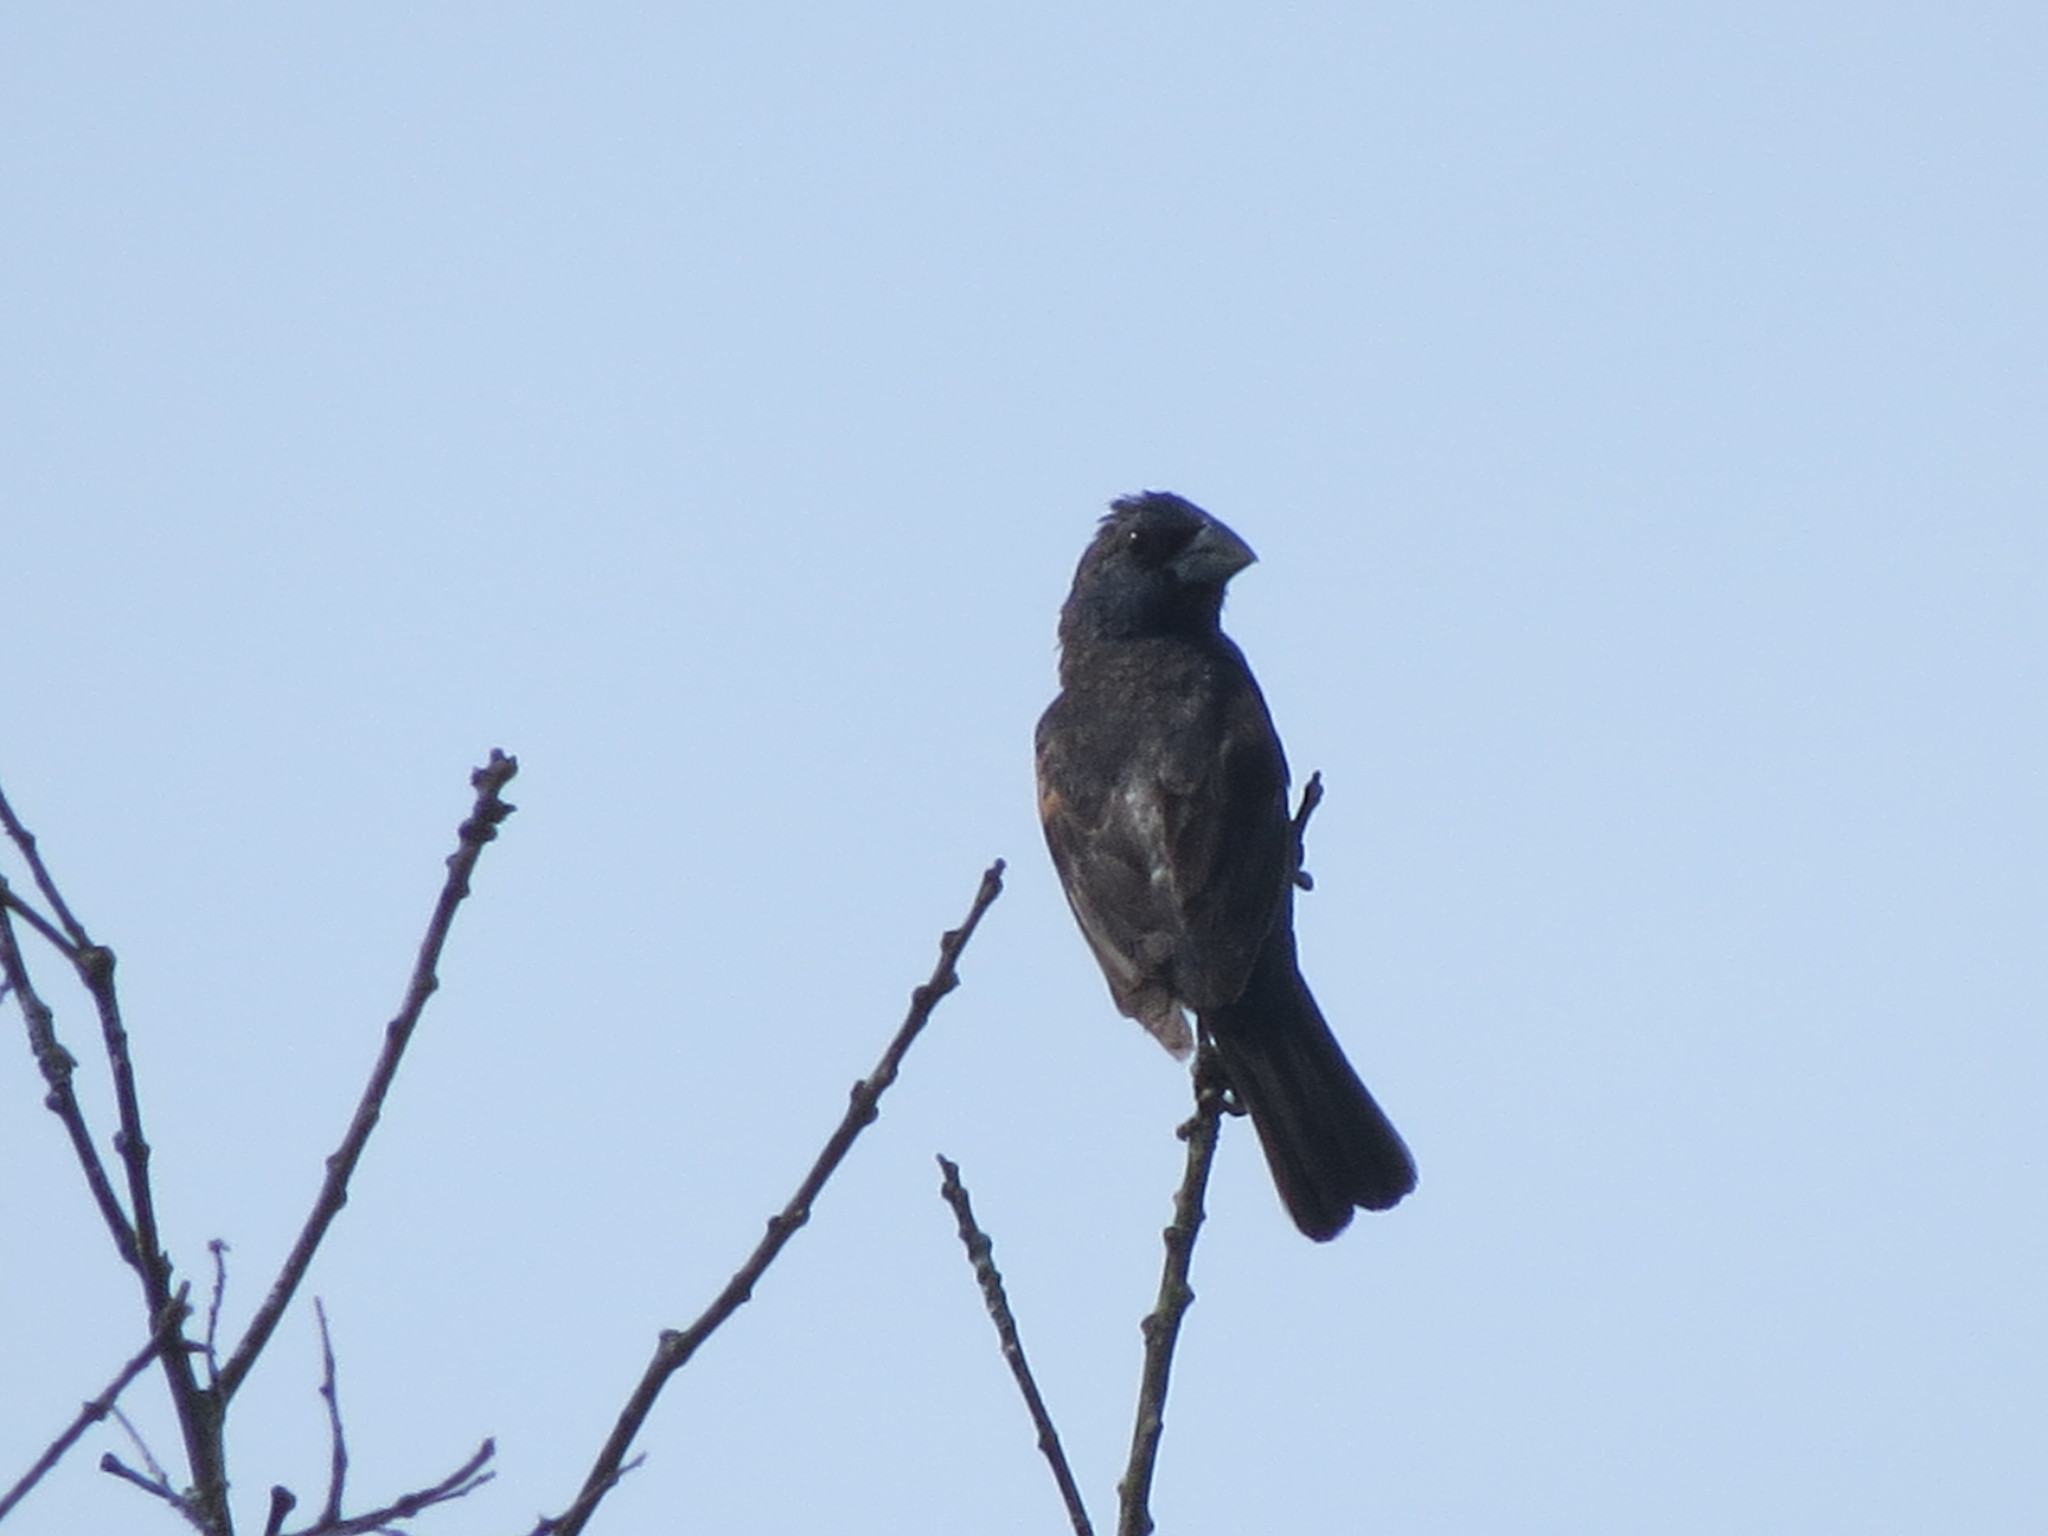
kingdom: Animalia
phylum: Chordata
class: Aves
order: Passeriformes
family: Cardinalidae
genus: Passerina
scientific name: Passerina caerulea
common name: Blue grosbeak
